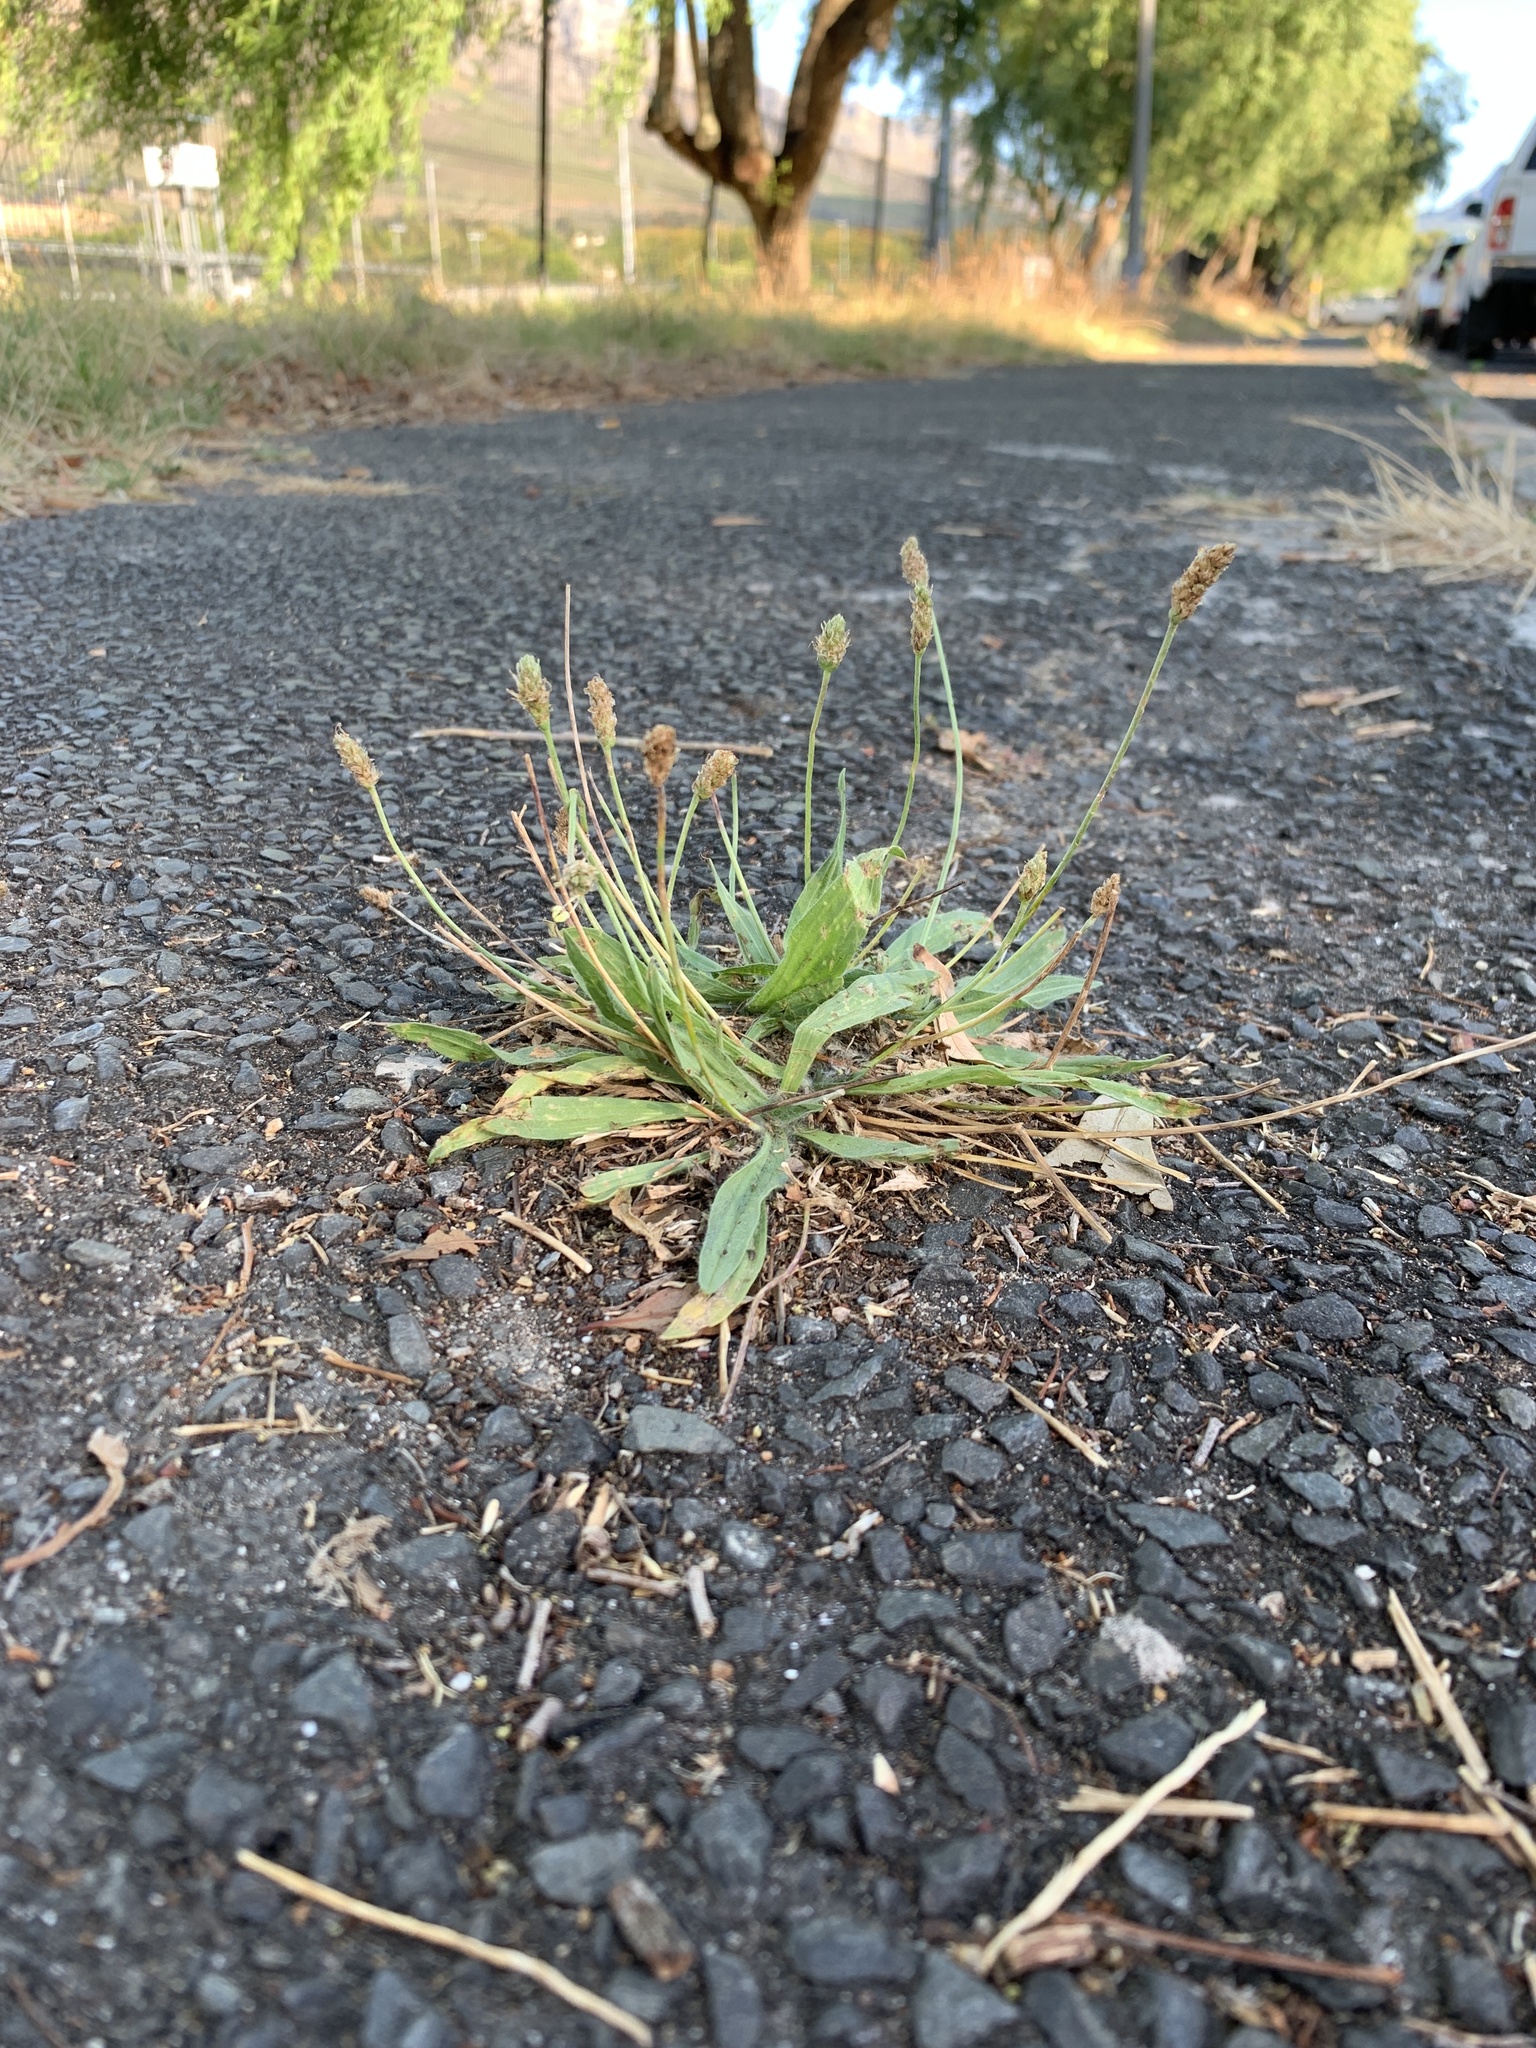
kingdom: Plantae
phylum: Tracheophyta
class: Magnoliopsida
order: Lamiales
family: Plantaginaceae
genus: Plantago
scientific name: Plantago lanceolata
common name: Ribwort plantain
